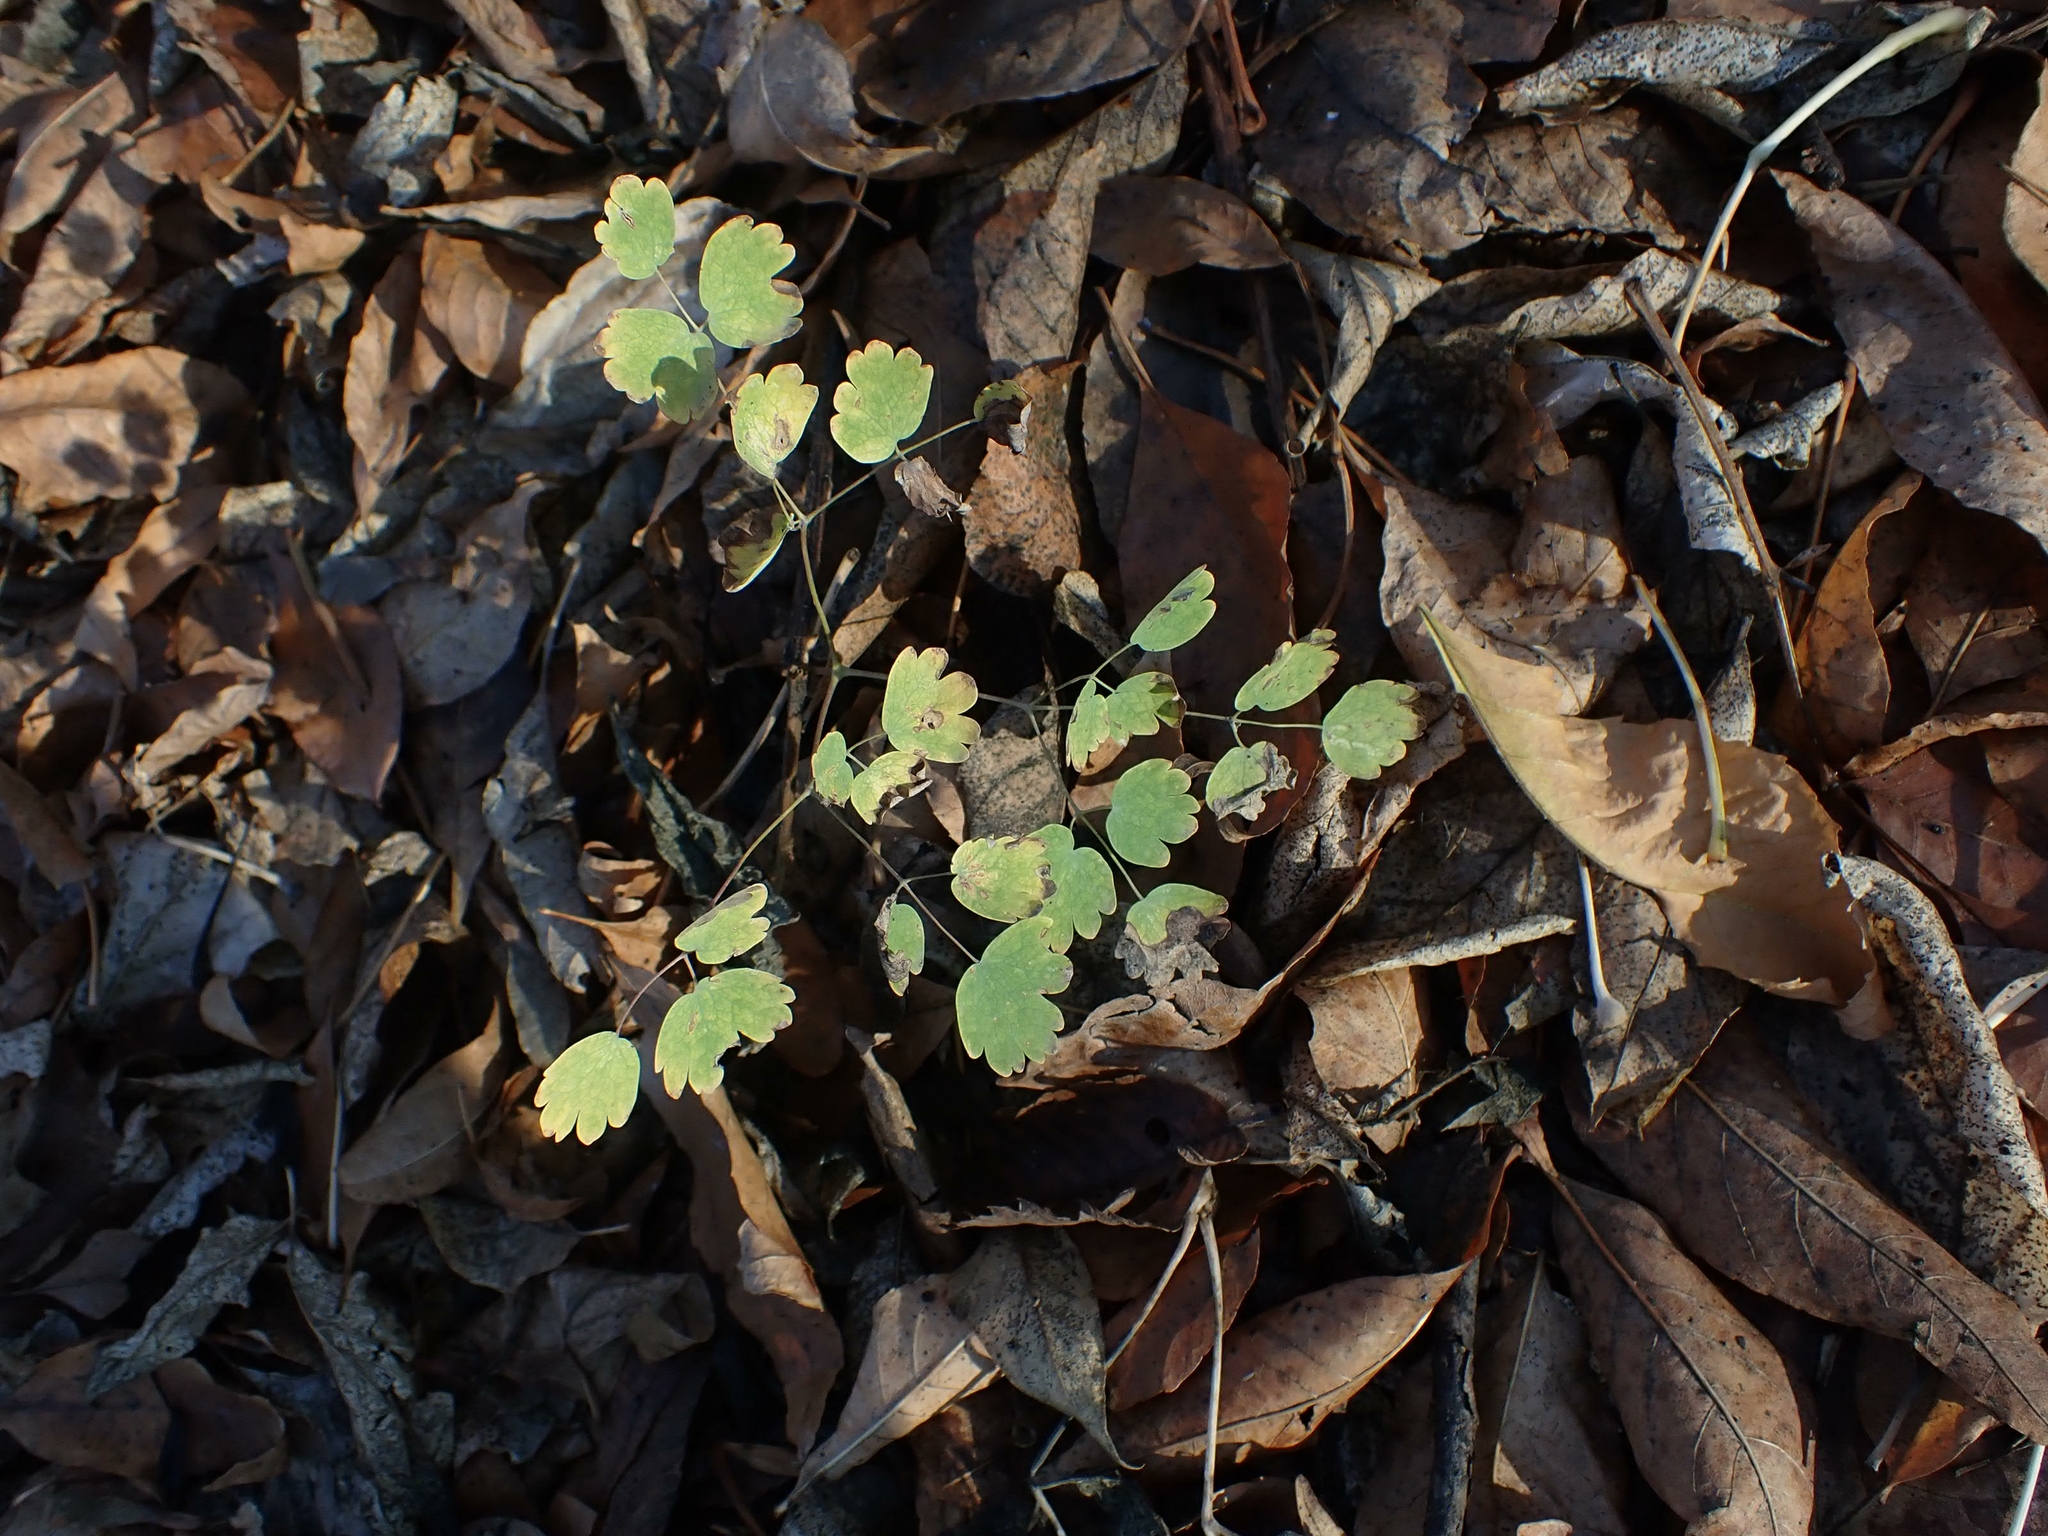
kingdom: Plantae
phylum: Tracheophyta
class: Magnoliopsida
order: Ranunculales
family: Ranunculaceae
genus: Thalictrum
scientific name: Thalictrum venulosum
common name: Early meadow-rue
